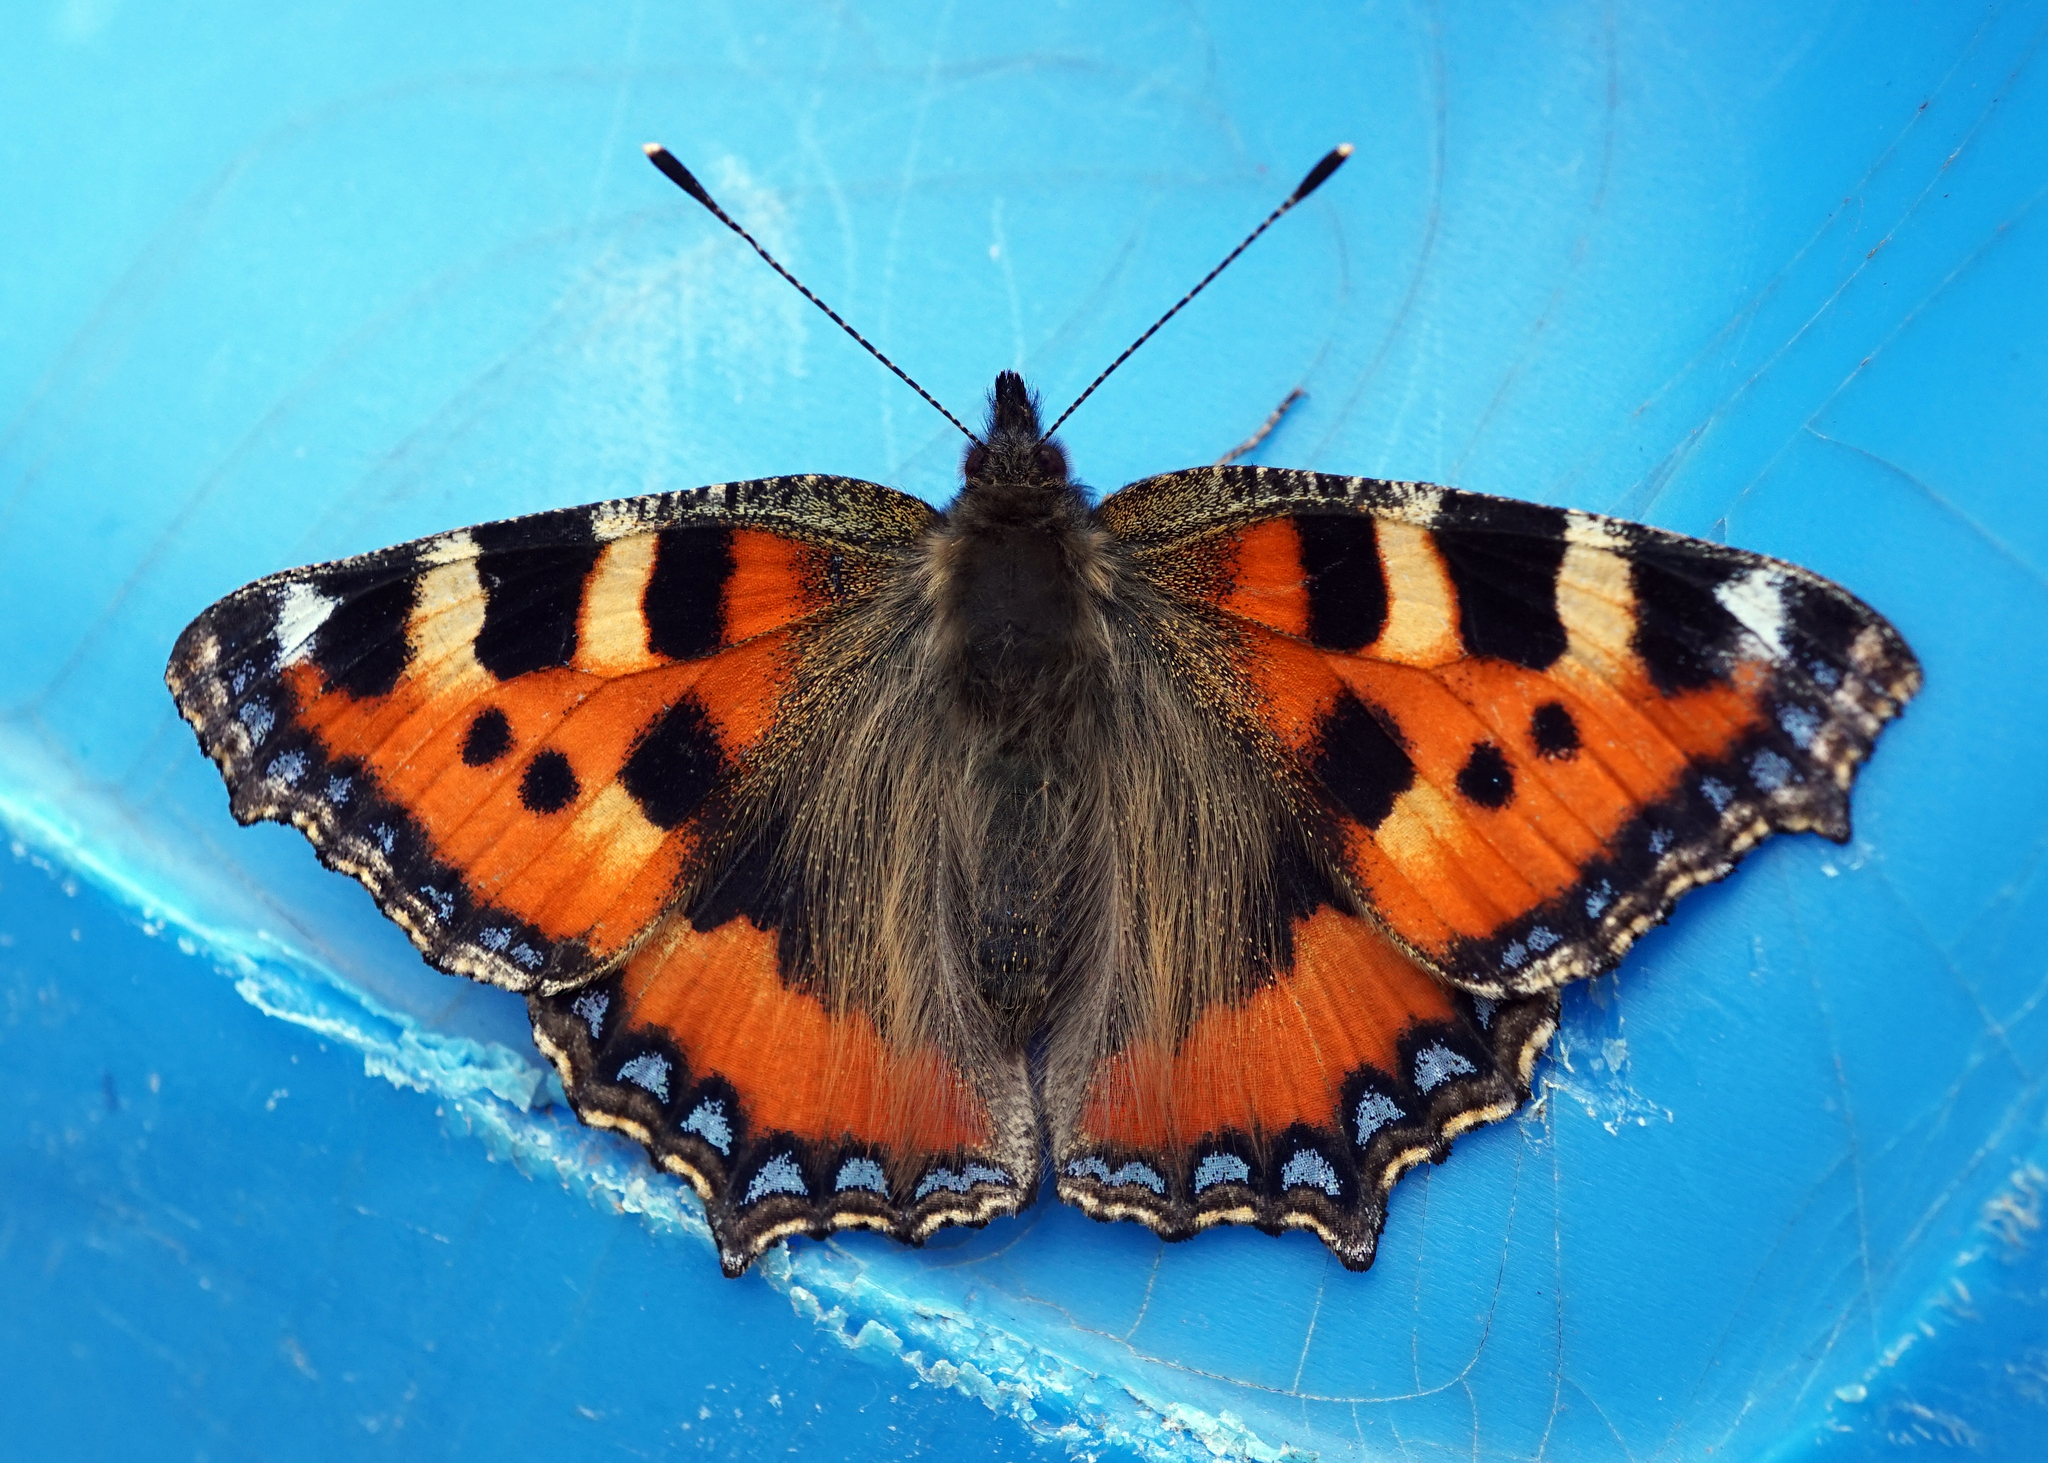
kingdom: Animalia
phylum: Arthropoda
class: Insecta
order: Lepidoptera
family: Nymphalidae
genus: Aglais
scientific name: Aglais urticae
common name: Small tortoiseshell
